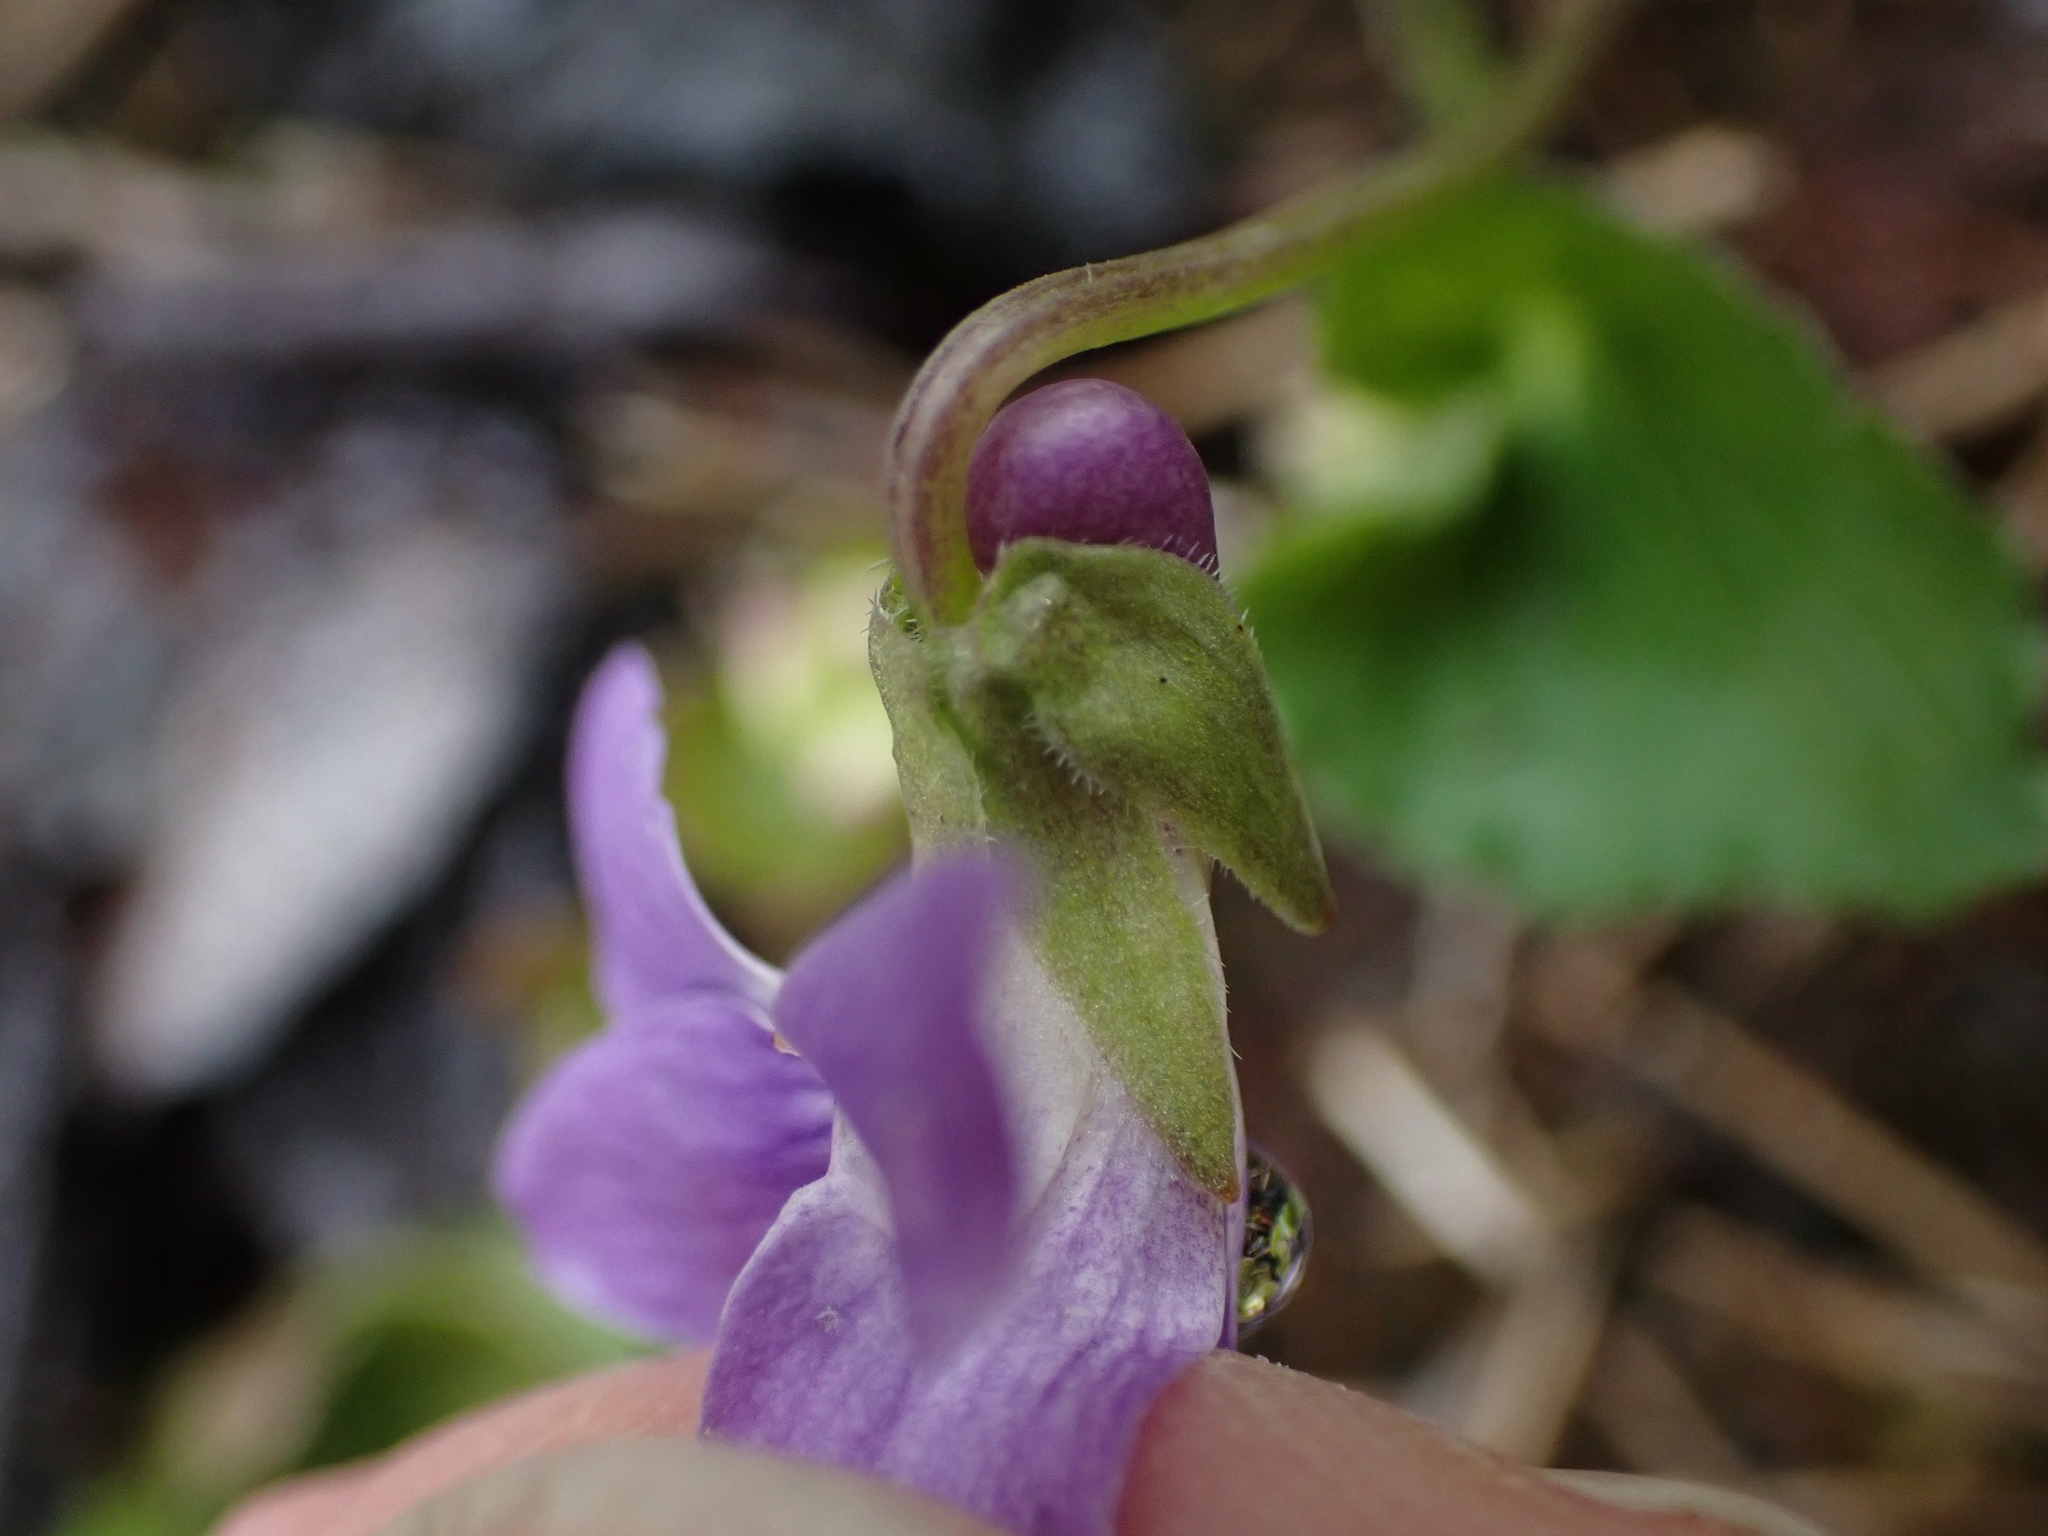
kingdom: Plantae
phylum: Tracheophyta
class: Magnoliopsida
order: Malpighiales
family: Violaceae
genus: Viola
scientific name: Viola adunca
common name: Sand violet
